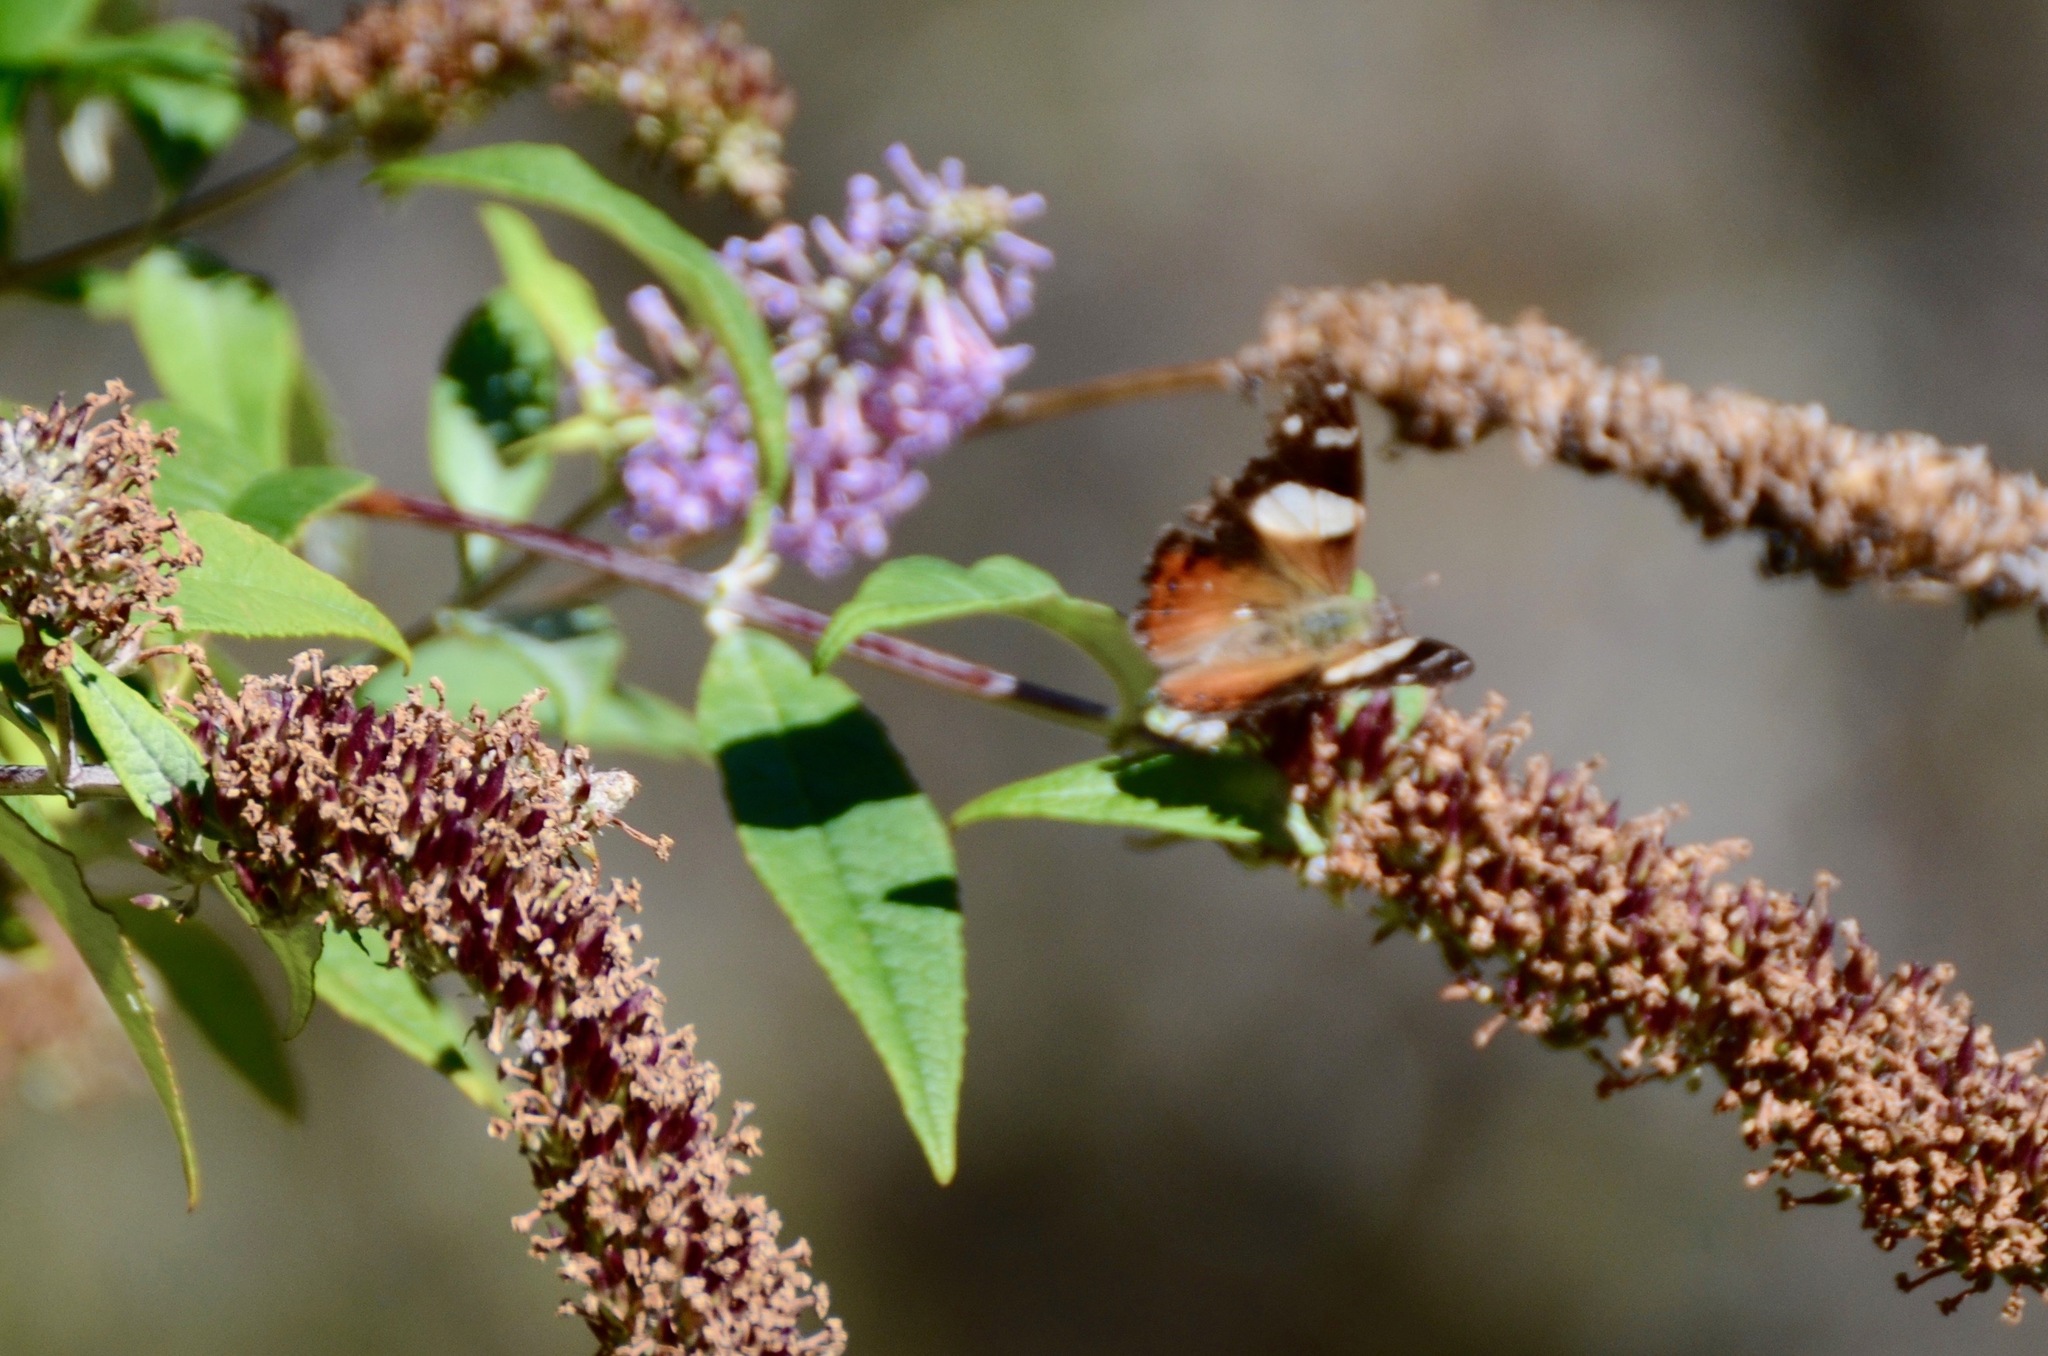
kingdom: Animalia
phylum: Arthropoda
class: Insecta
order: Lepidoptera
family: Nymphalidae
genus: Vanessa
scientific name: Vanessa itea
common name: Yellow admiral
